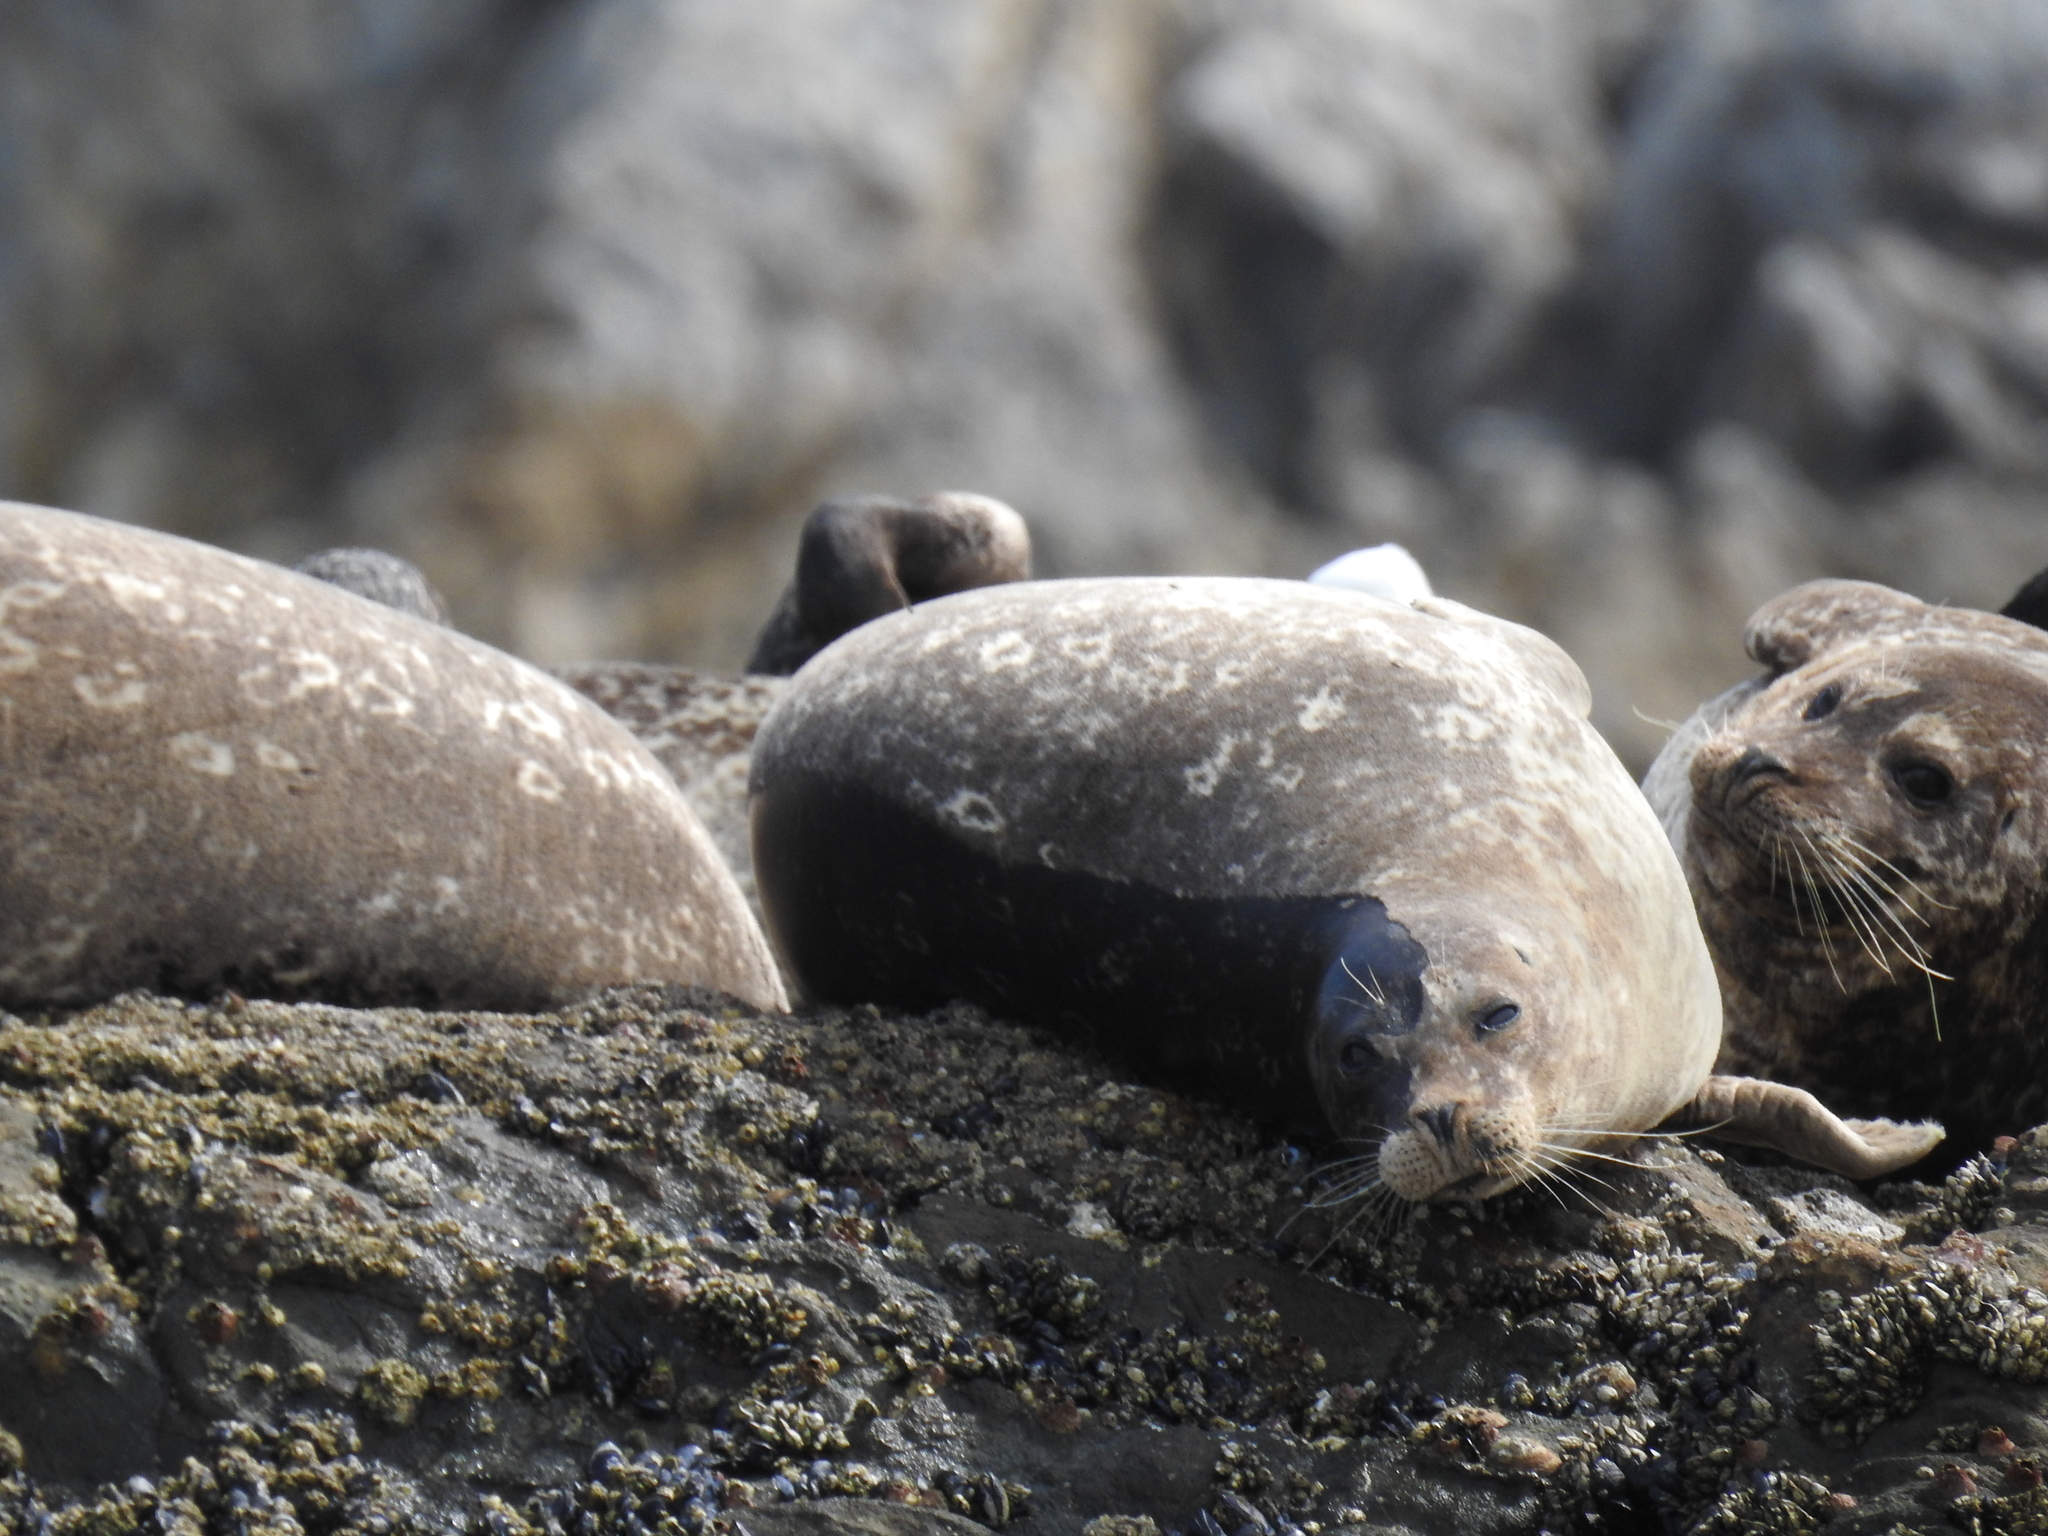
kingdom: Animalia
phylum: Chordata
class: Mammalia
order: Carnivora
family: Phocidae
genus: Phoca
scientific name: Phoca vitulina
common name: Harbor seal
